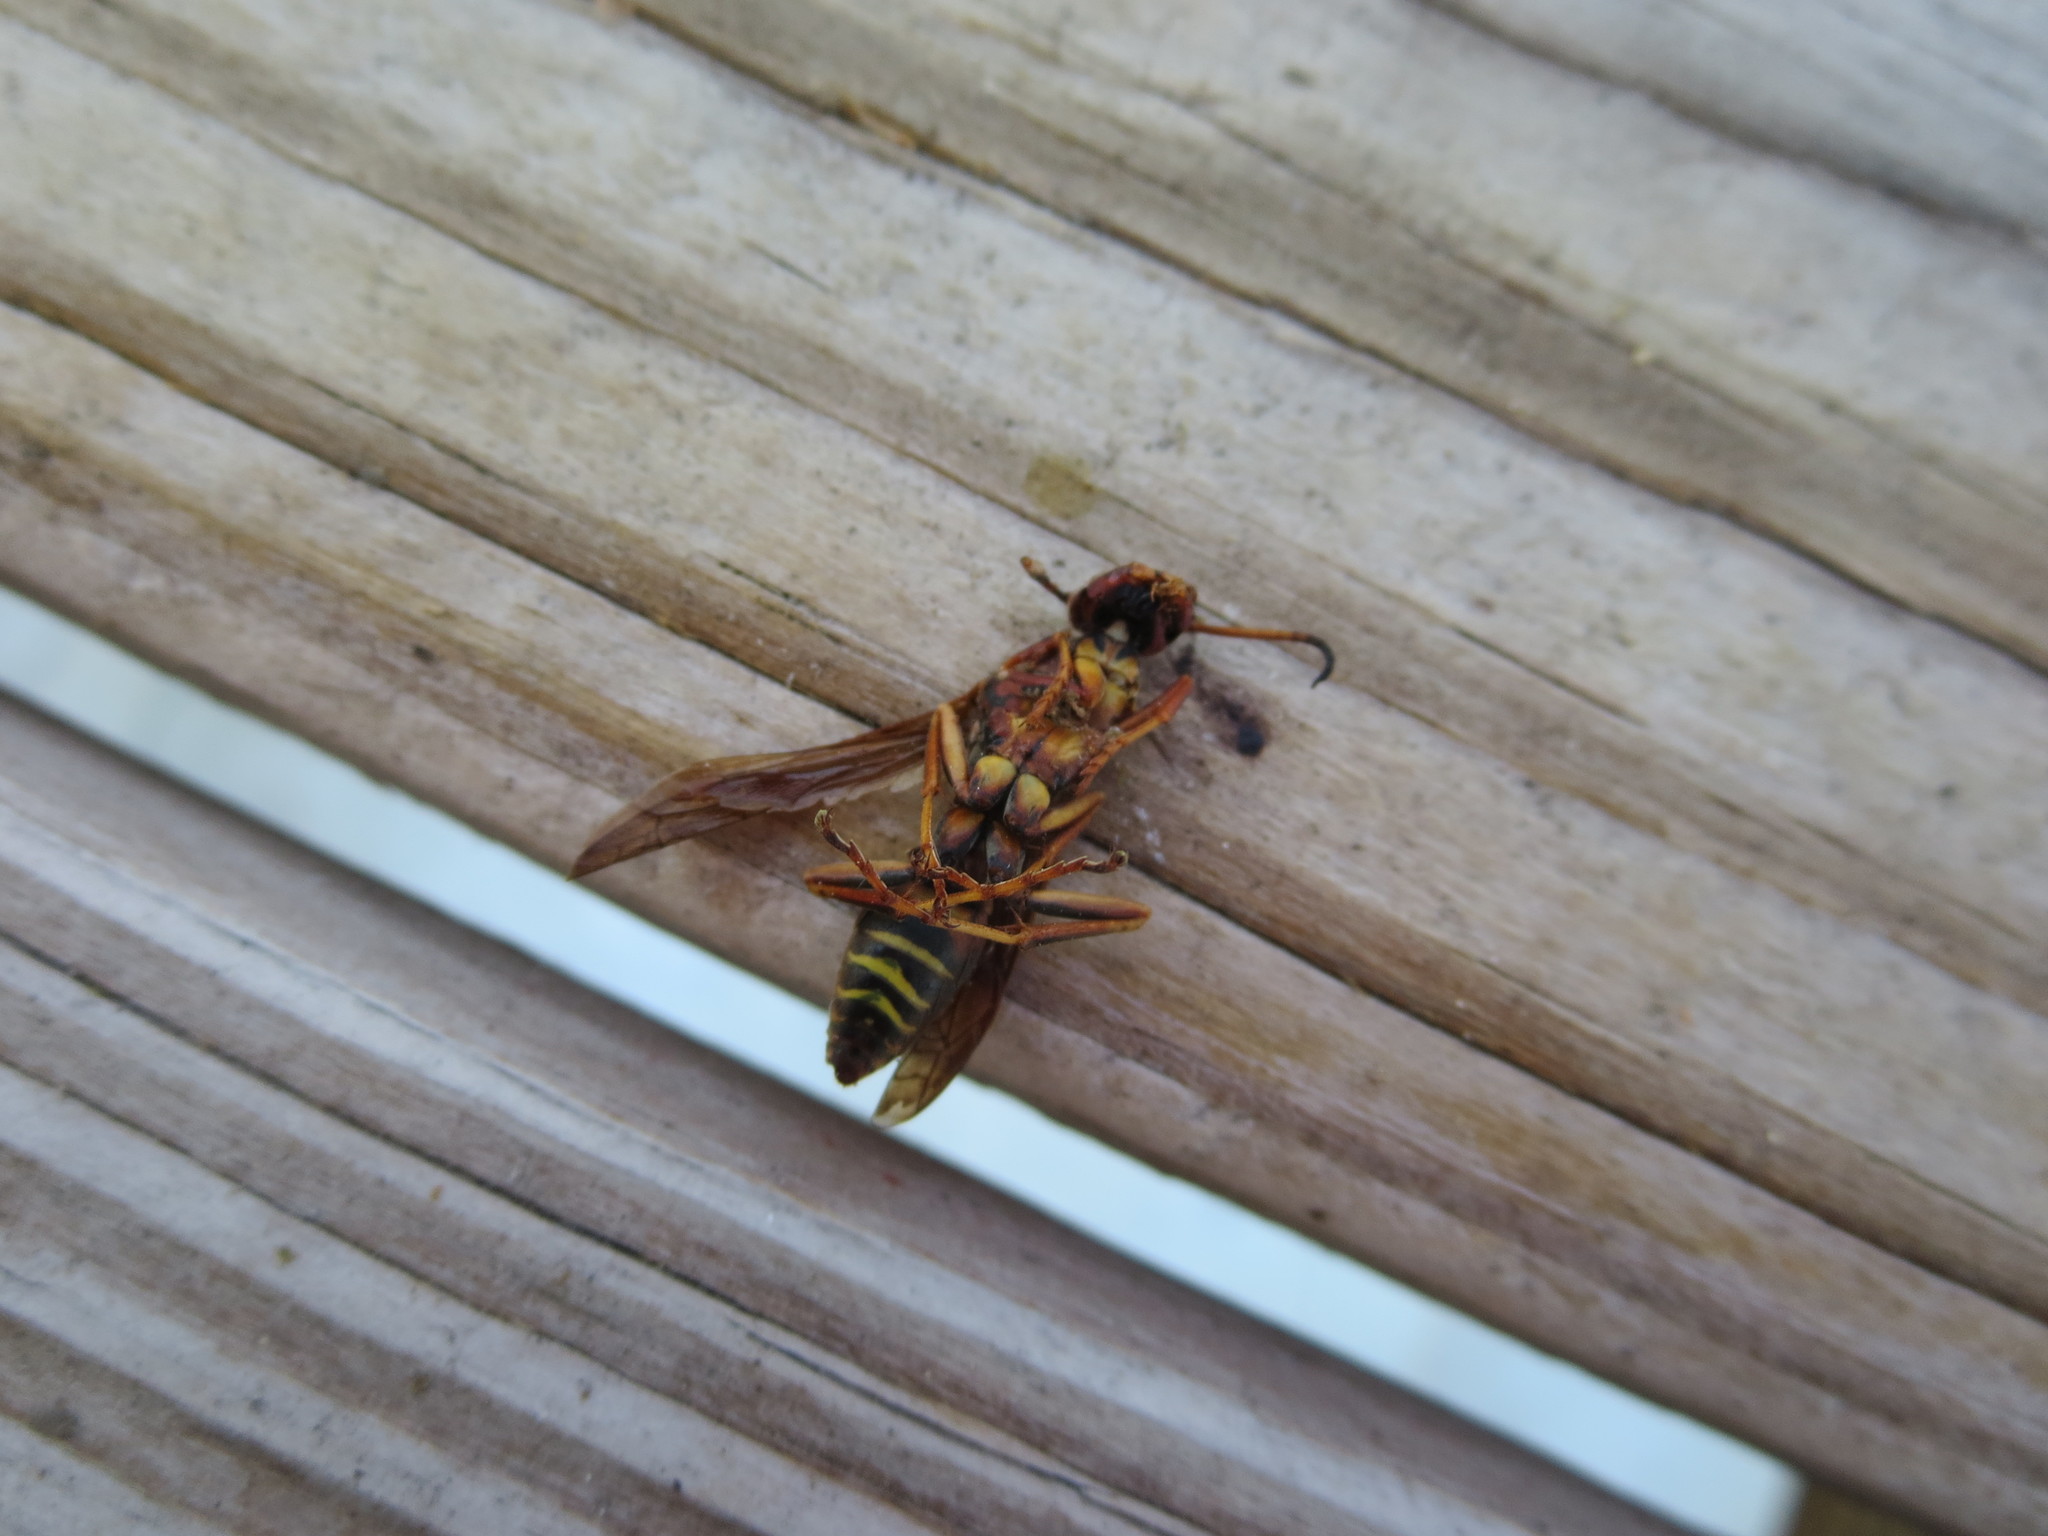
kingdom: Animalia
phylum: Arthropoda
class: Insecta
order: Hymenoptera
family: Eumenidae
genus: Polistes
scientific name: Polistes fuscatus
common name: Dark paper wasp
